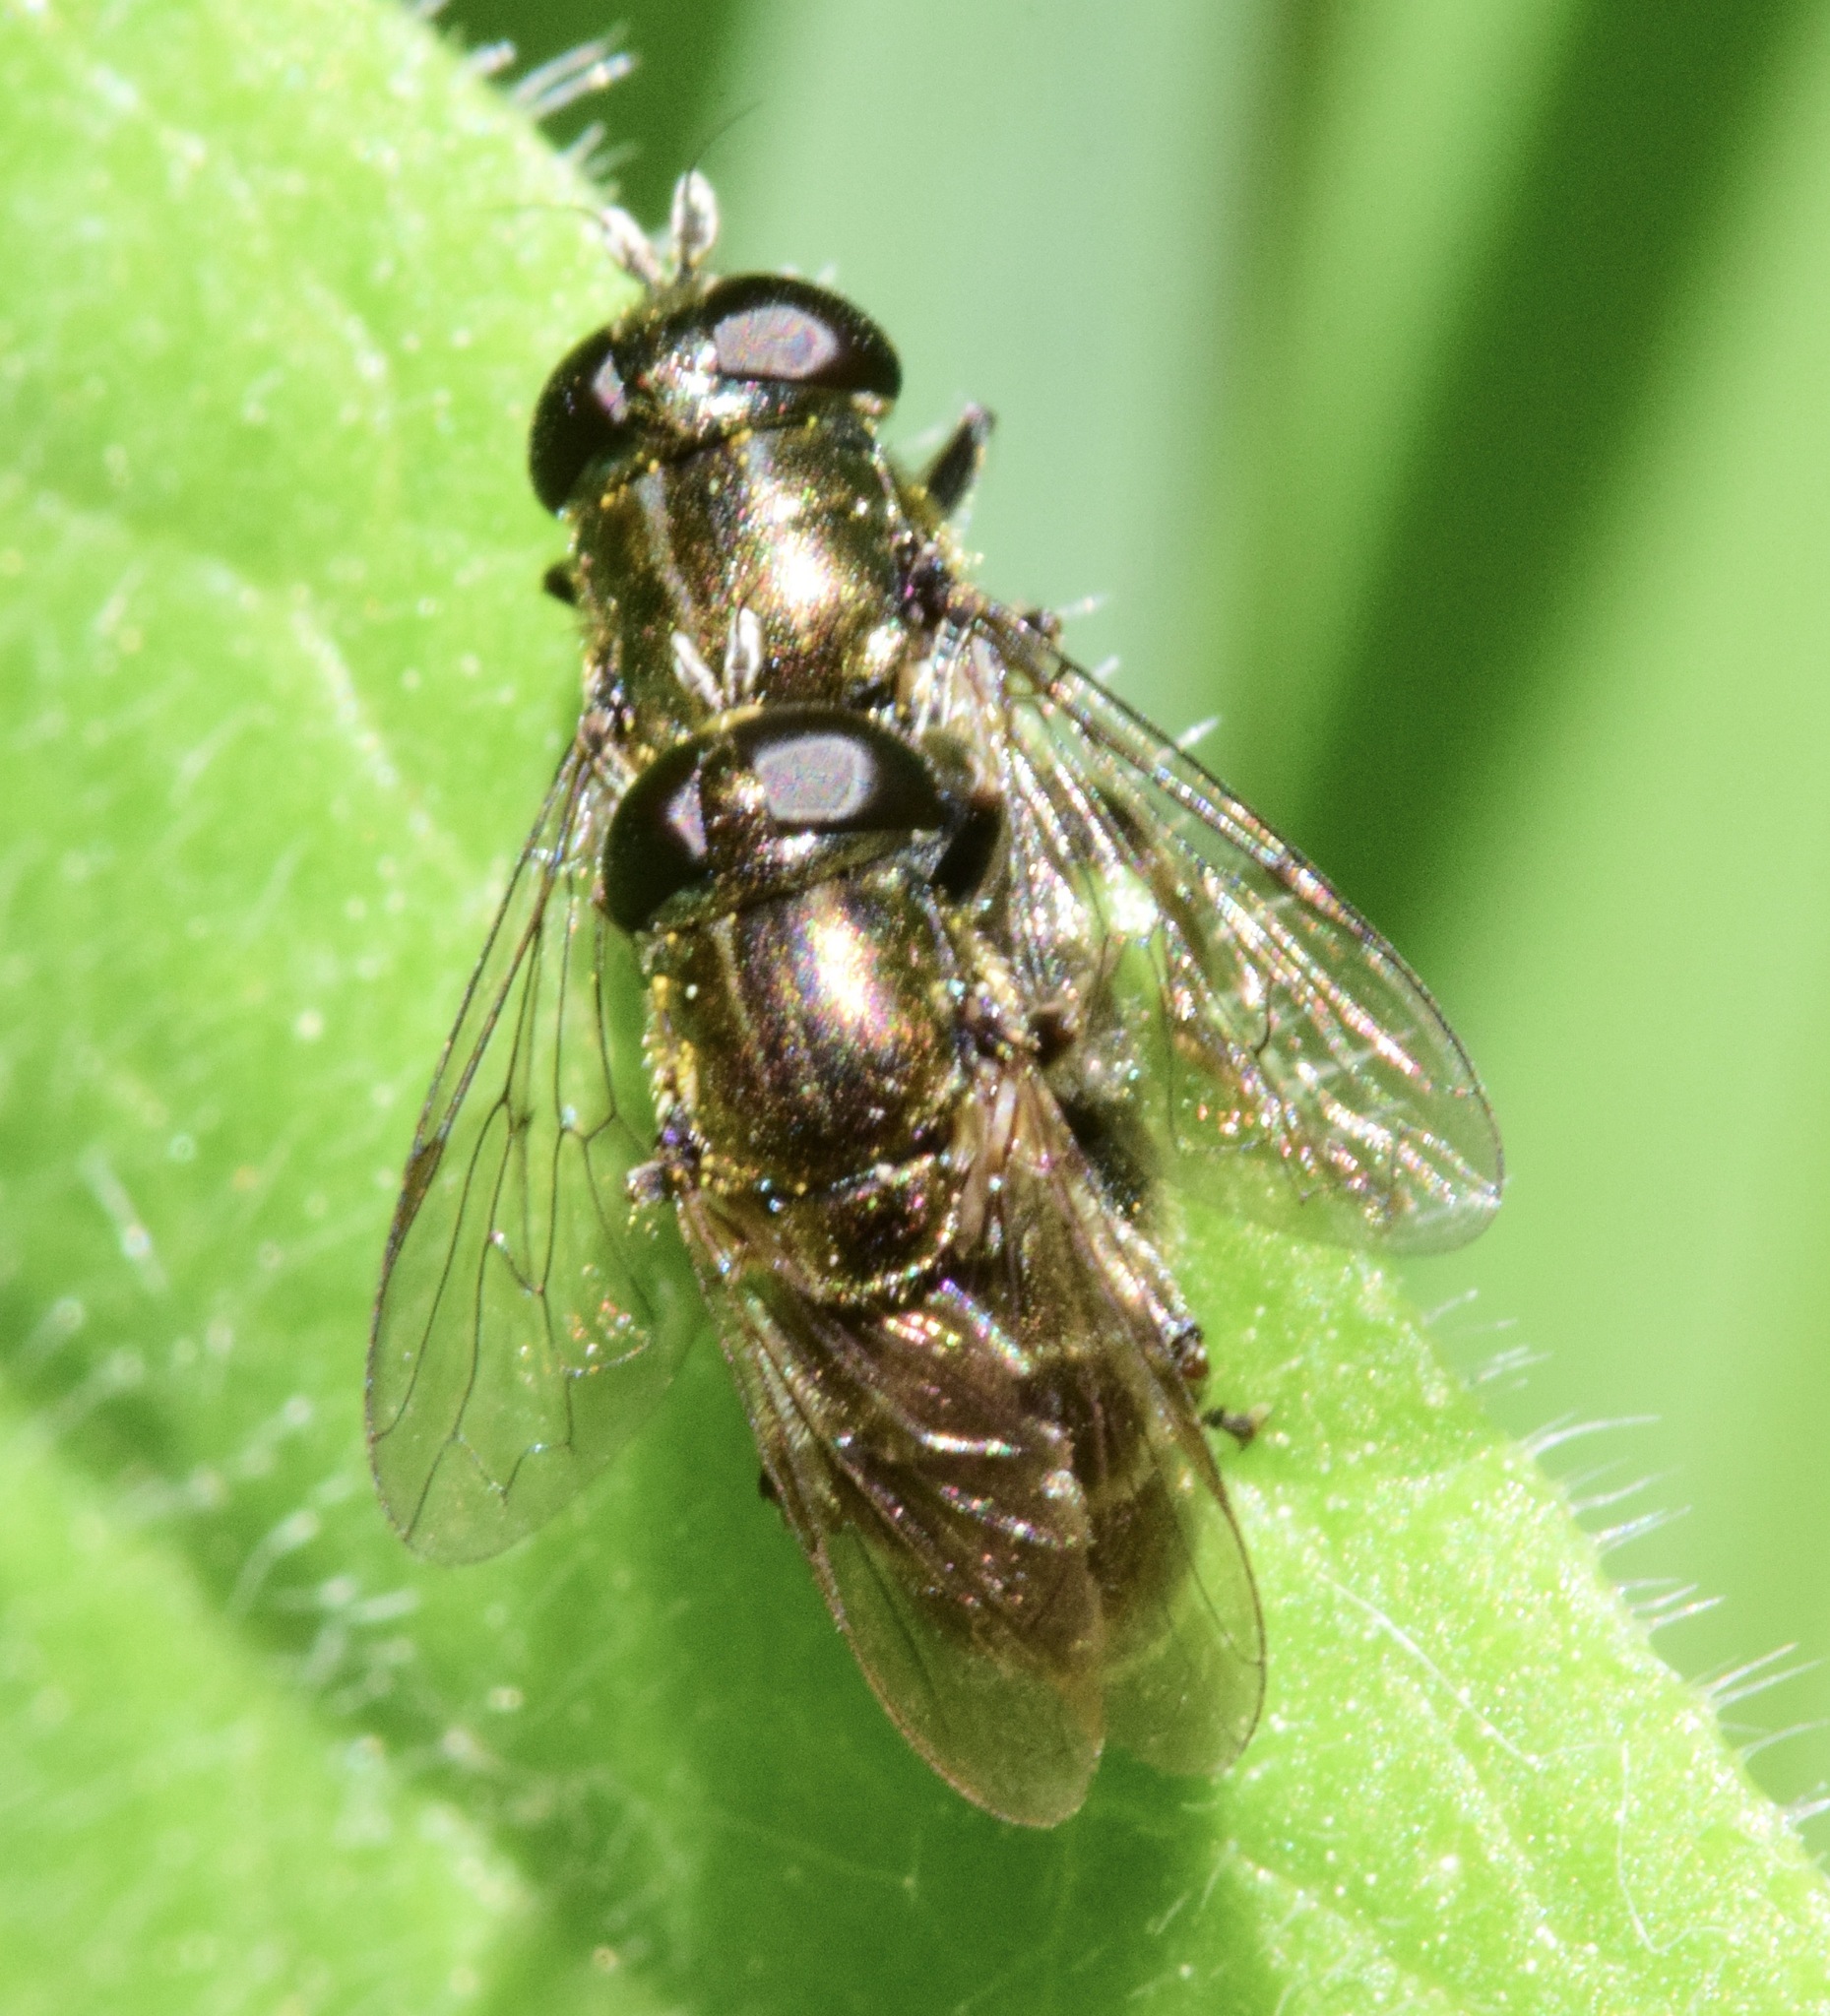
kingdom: Animalia
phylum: Arthropoda
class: Insecta
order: Diptera
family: Syrphidae
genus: Eumerus
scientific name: Eumerus
